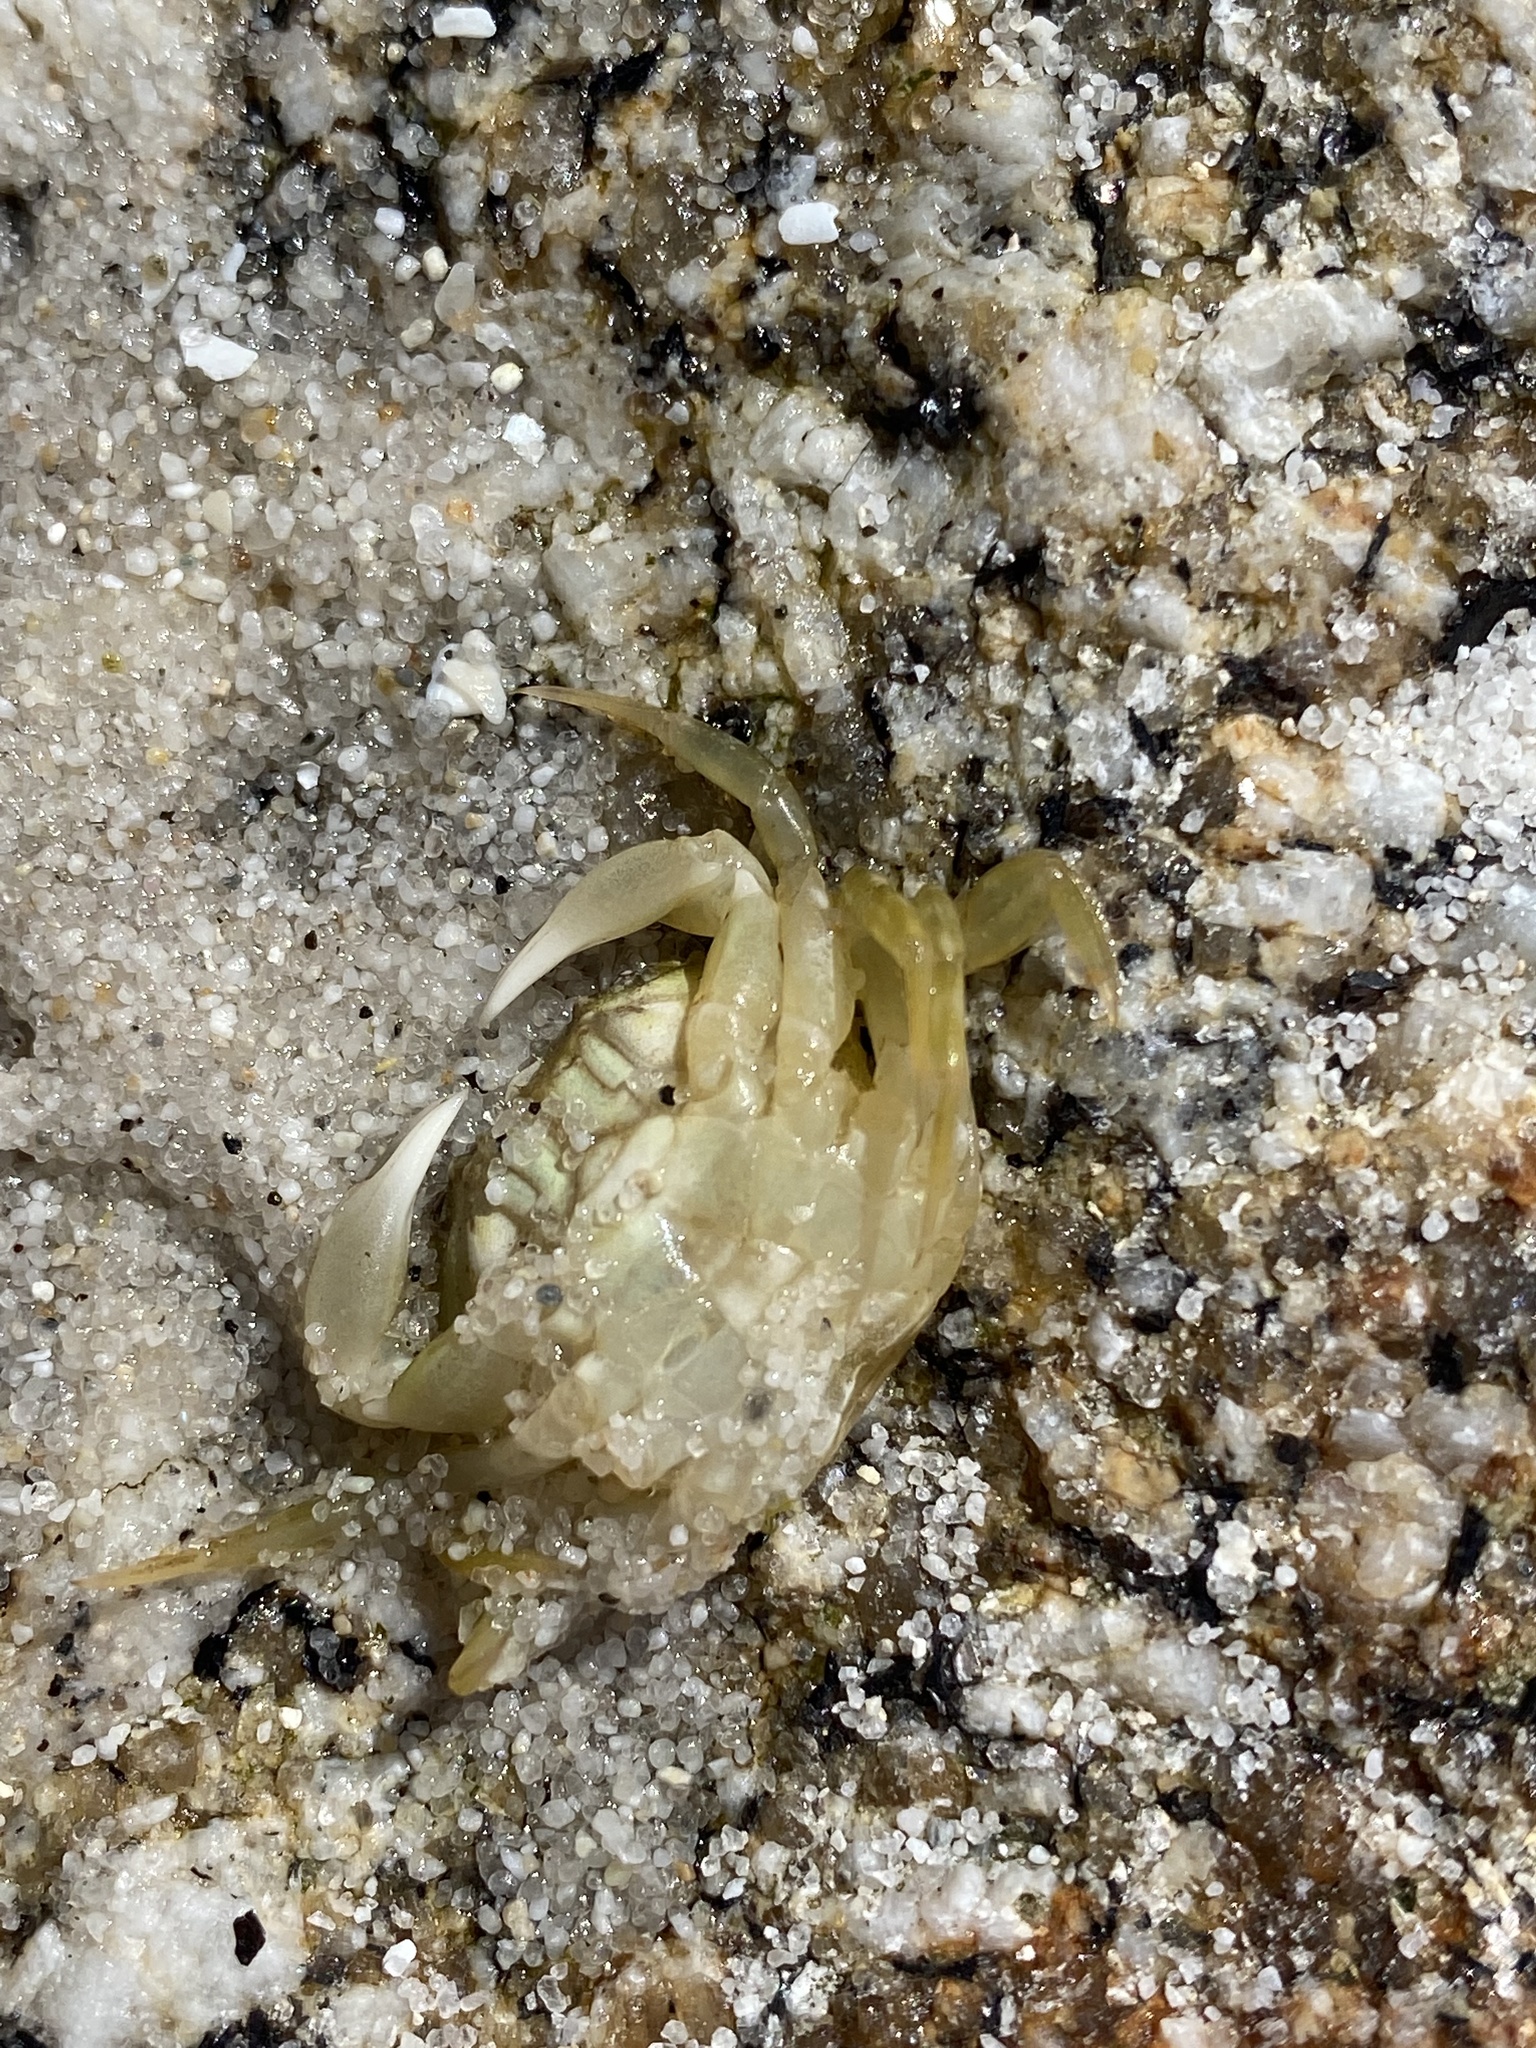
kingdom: Animalia
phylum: Arthropoda
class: Malacostraca
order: Decapoda
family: Carcinidae
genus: Carcinus
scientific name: Carcinus maenas
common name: European green crab
